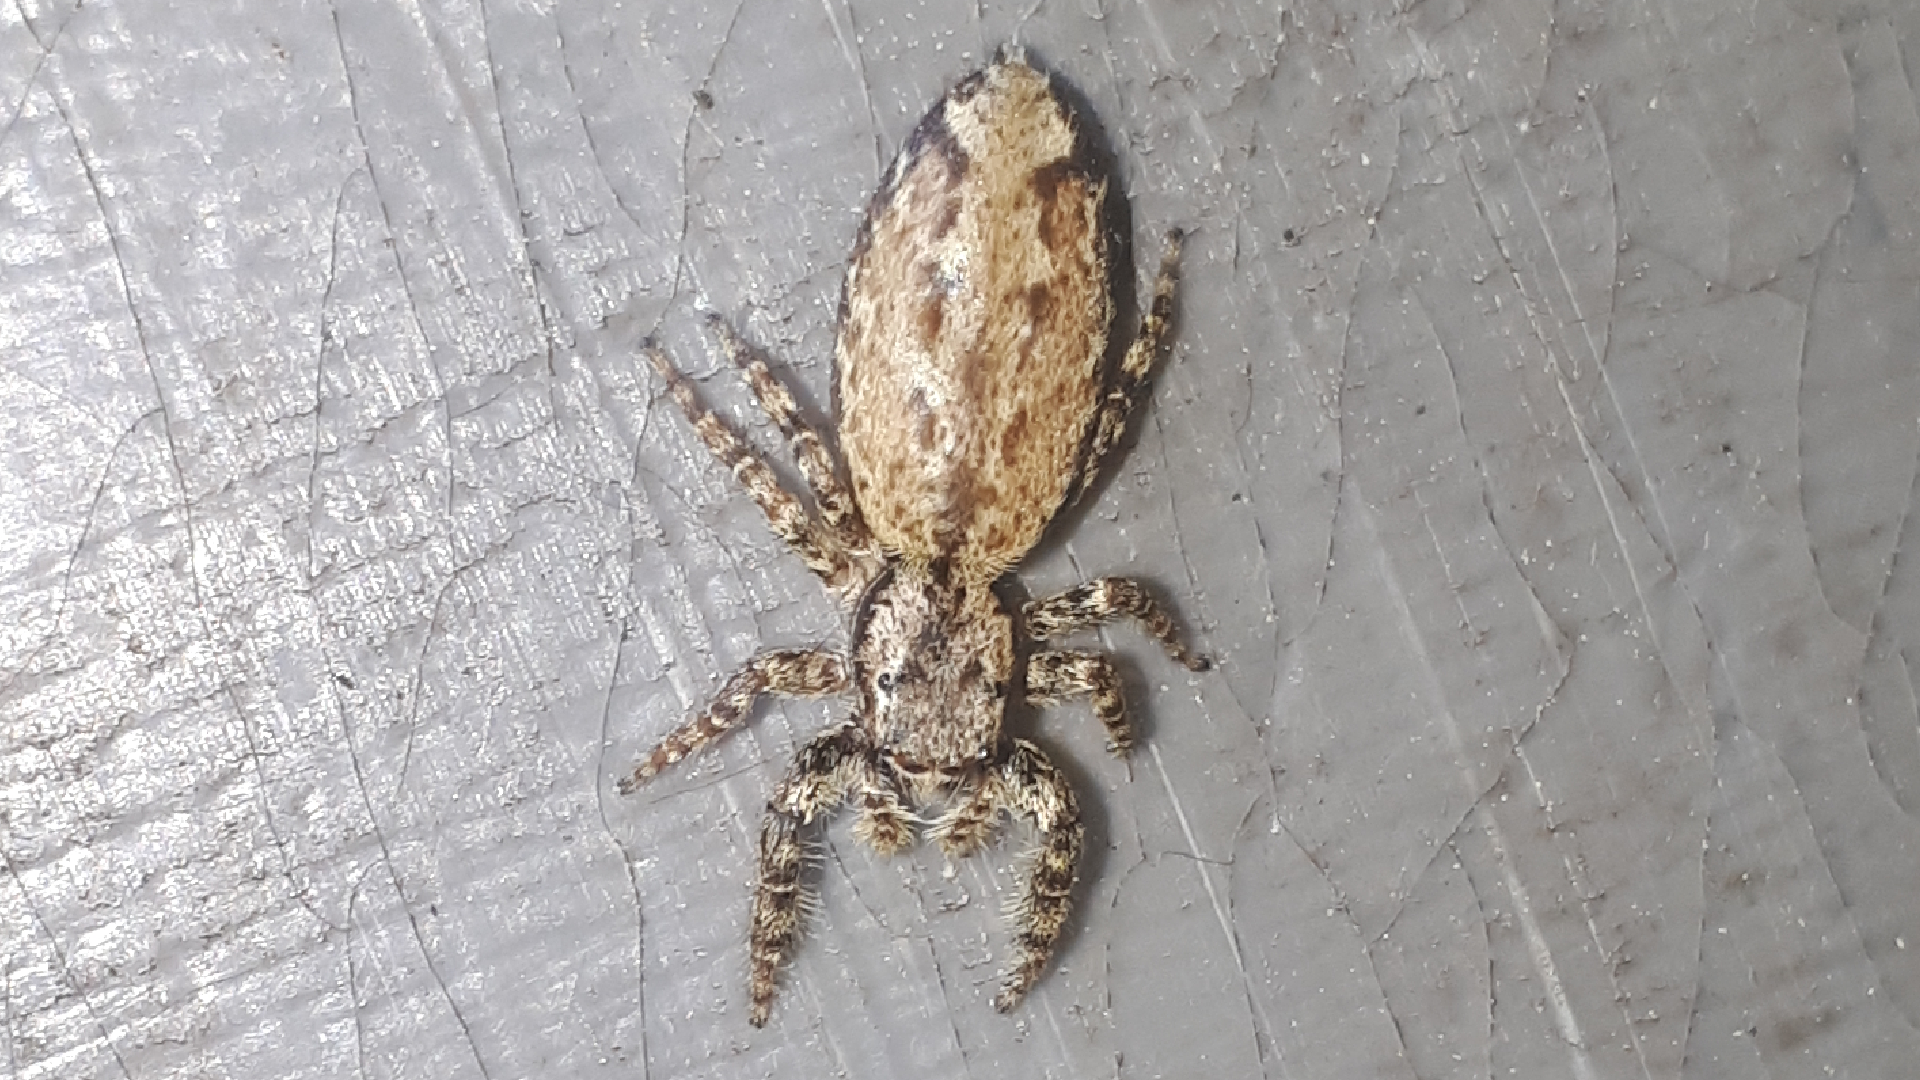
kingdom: Animalia
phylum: Arthropoda
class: Arachnida
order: Araneae
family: Salticidae
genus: Marpissa
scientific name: Marpissa muscosa
